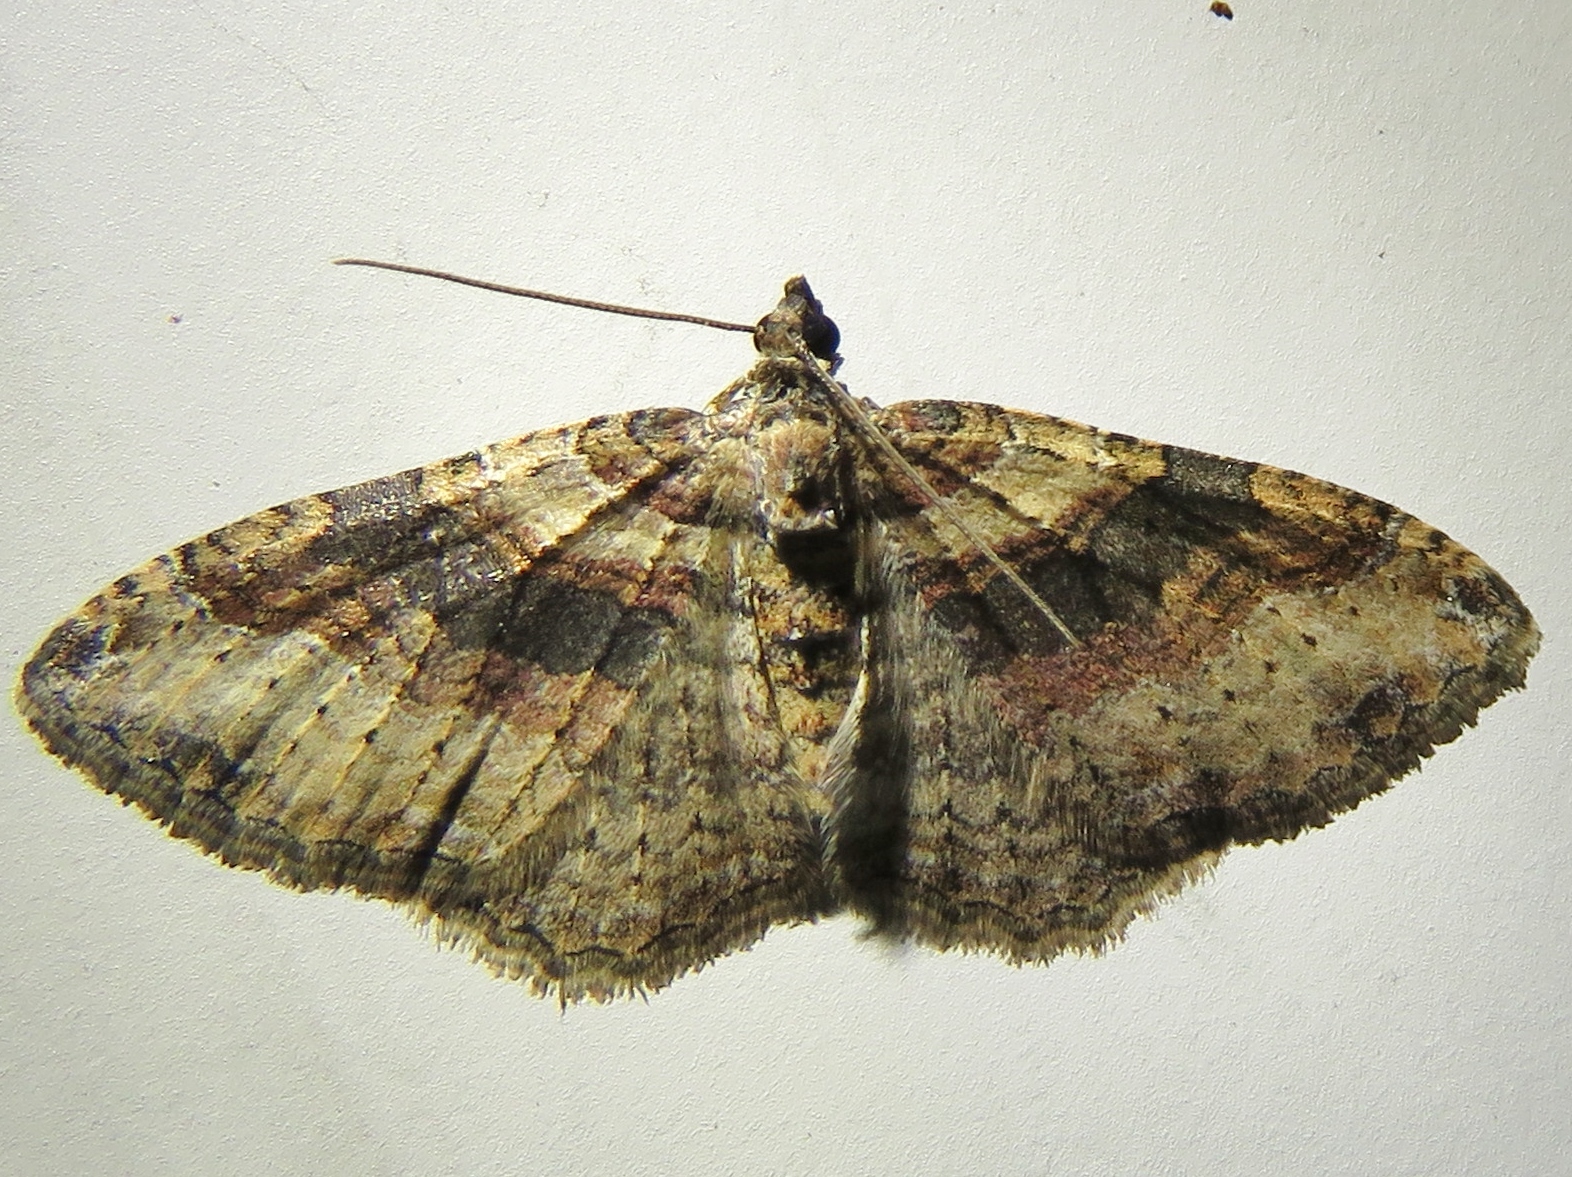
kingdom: Animalia
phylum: Arthropoda
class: Insecta
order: Lepidoptera
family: Geometridae
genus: Costaconvexa
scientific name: Costaconvexa centrostrigaria
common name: Bent-line carpet
